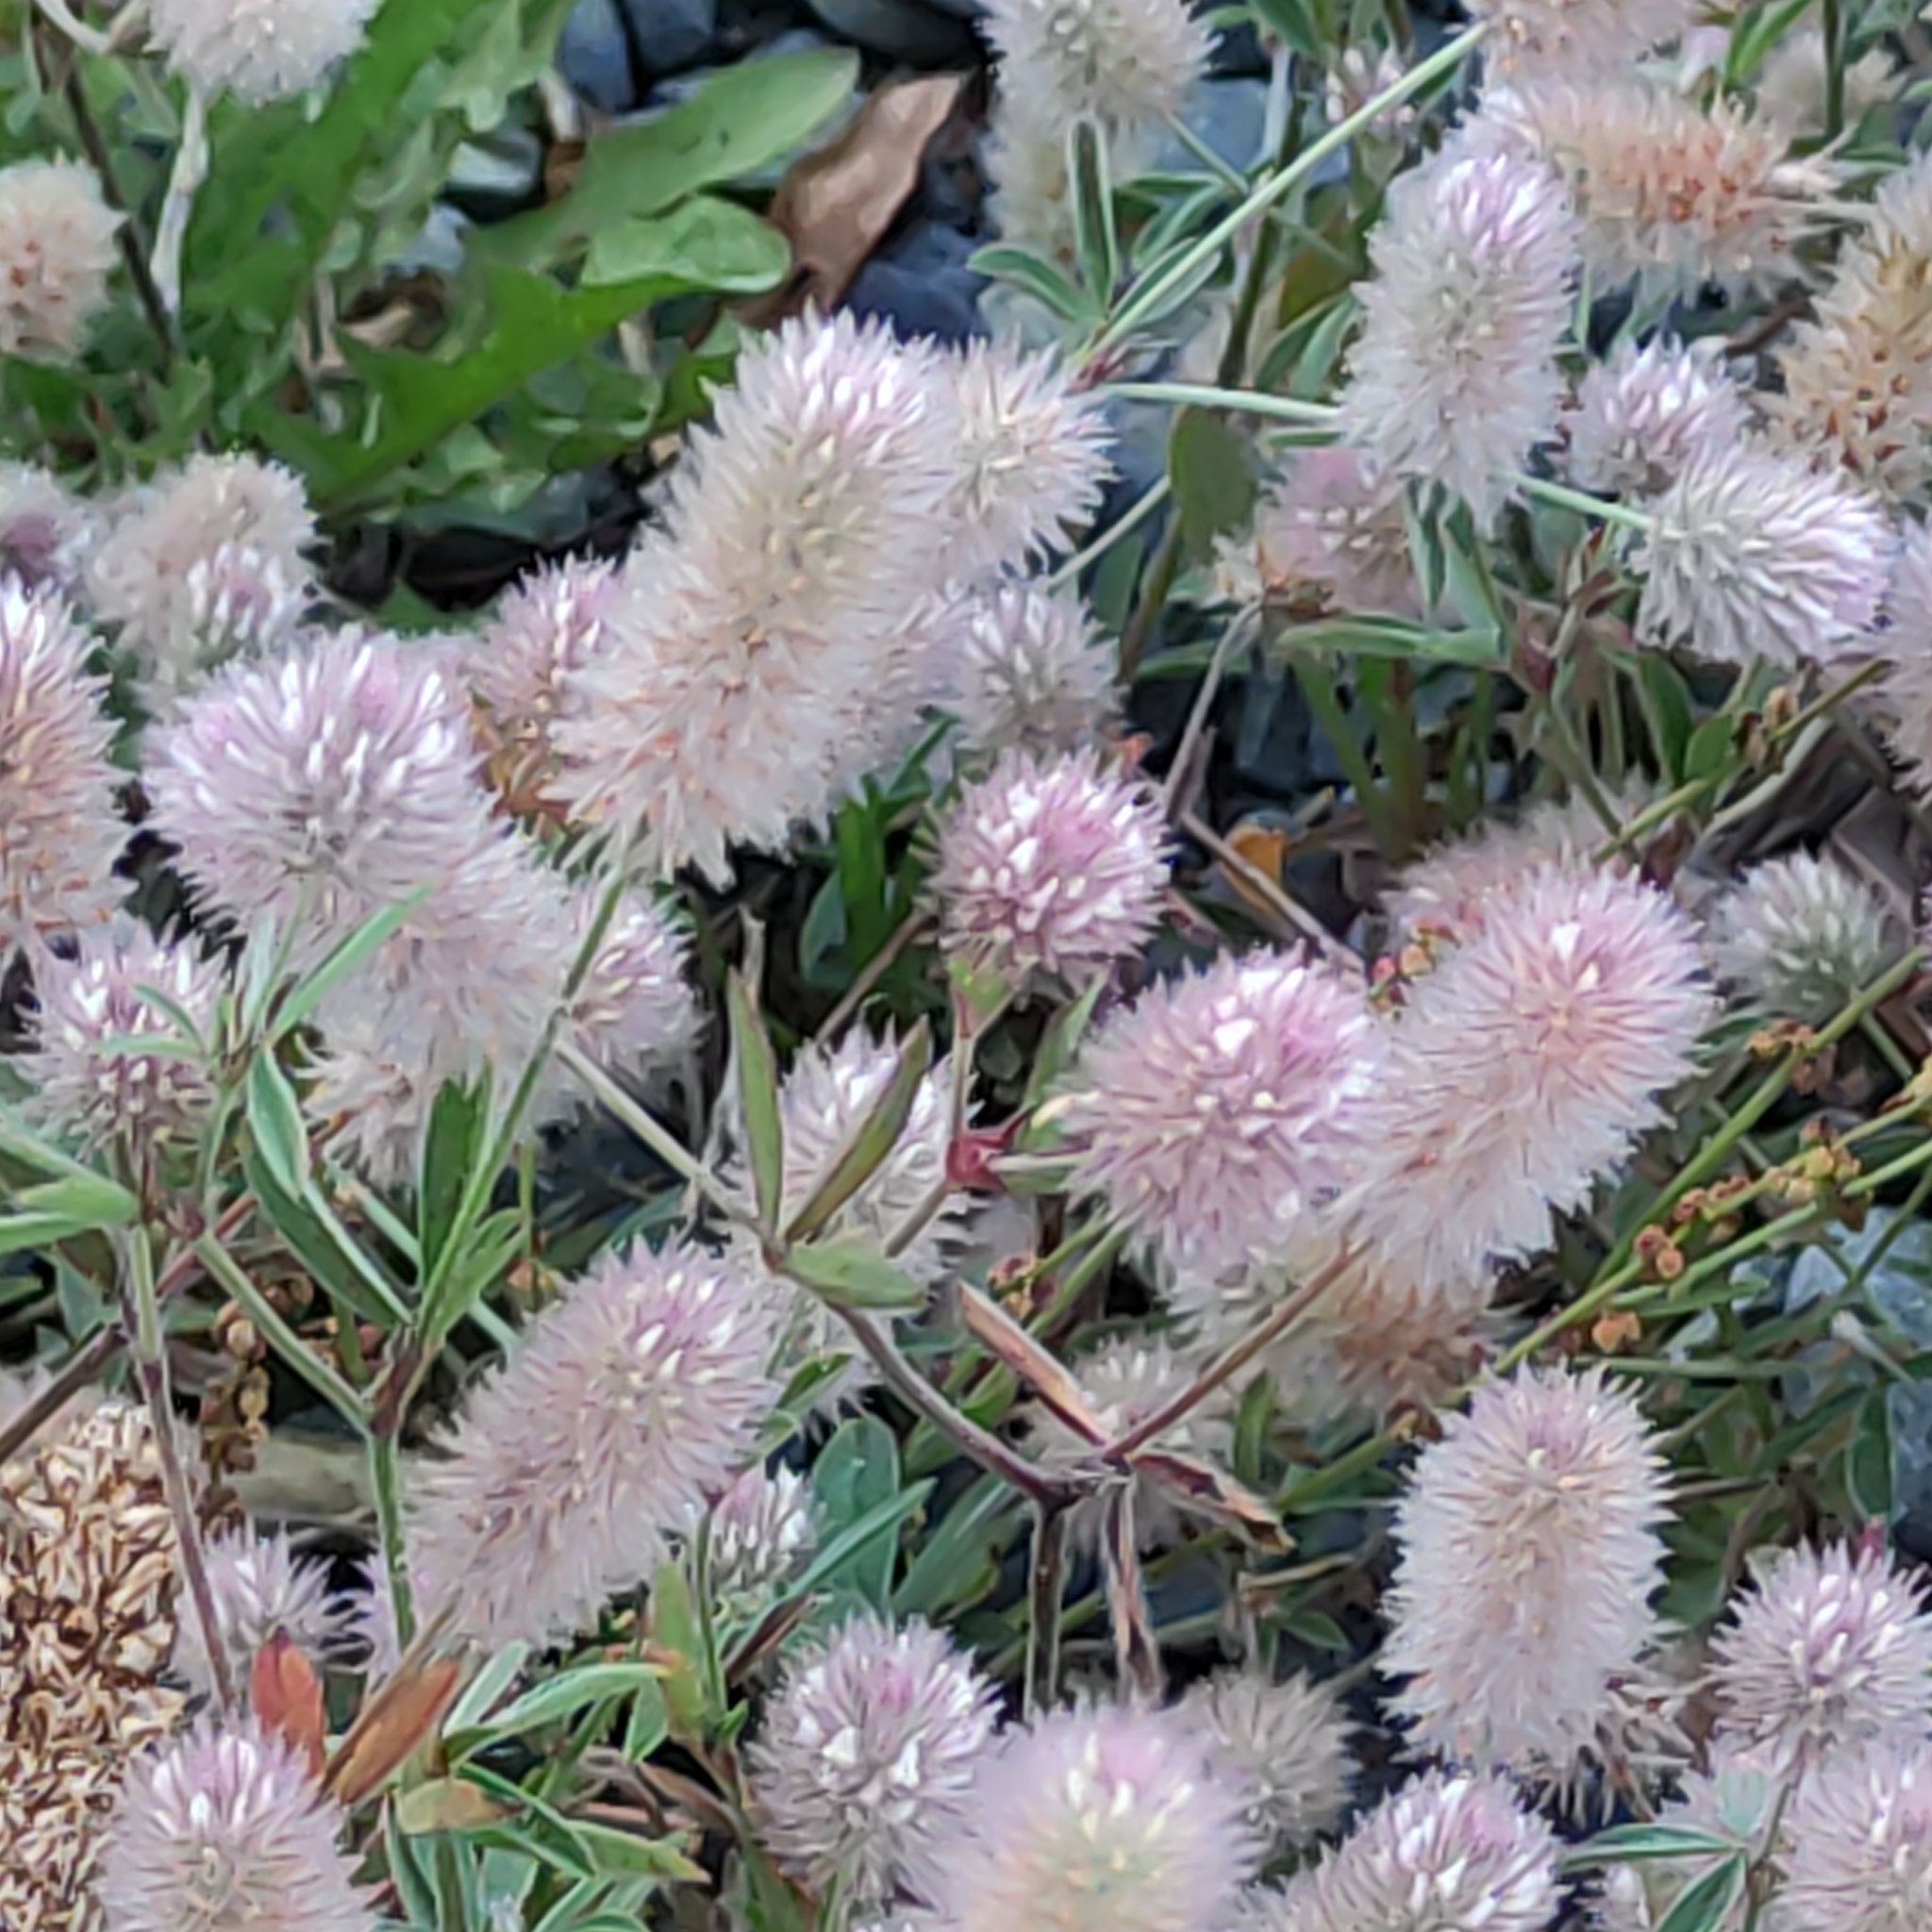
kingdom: Plantae
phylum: Tracheophyta
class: Magnoliopsida
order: Fabales
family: Fabaceae
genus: Trifolium
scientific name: Trifolium arvense
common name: Hare's-foot clover
